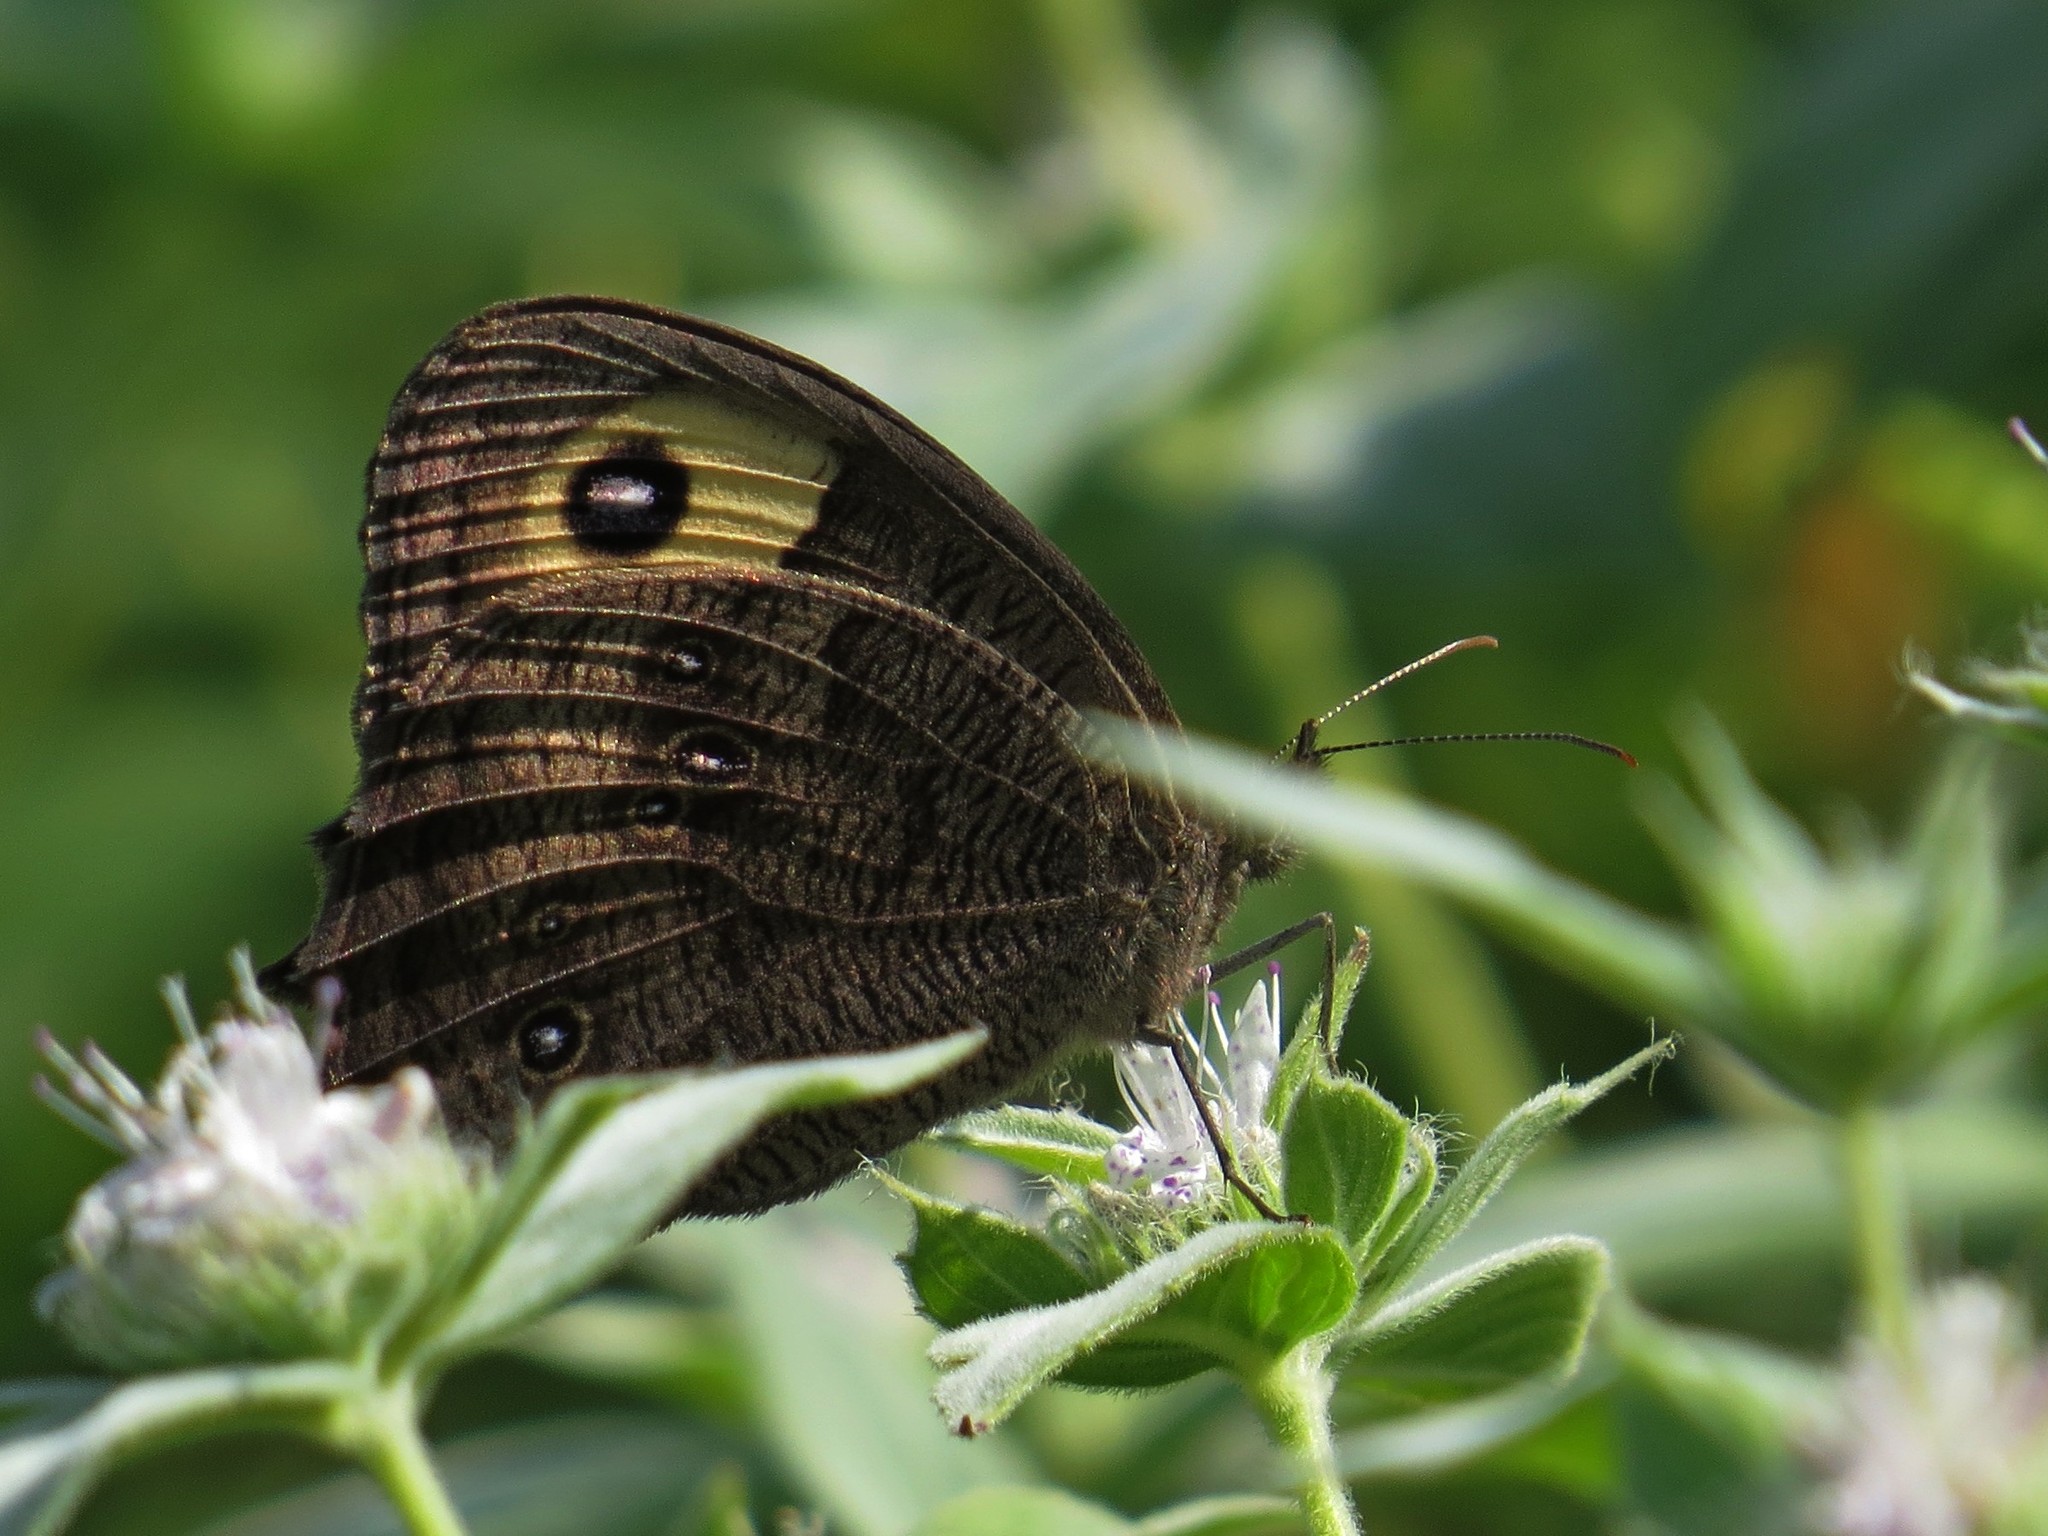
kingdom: Animalia
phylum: Arthropoda
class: Insecta
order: Lepidoptera
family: Nymphalidae
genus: Cercyonis
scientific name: Cercyonis pegala
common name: Common wood-nymph
